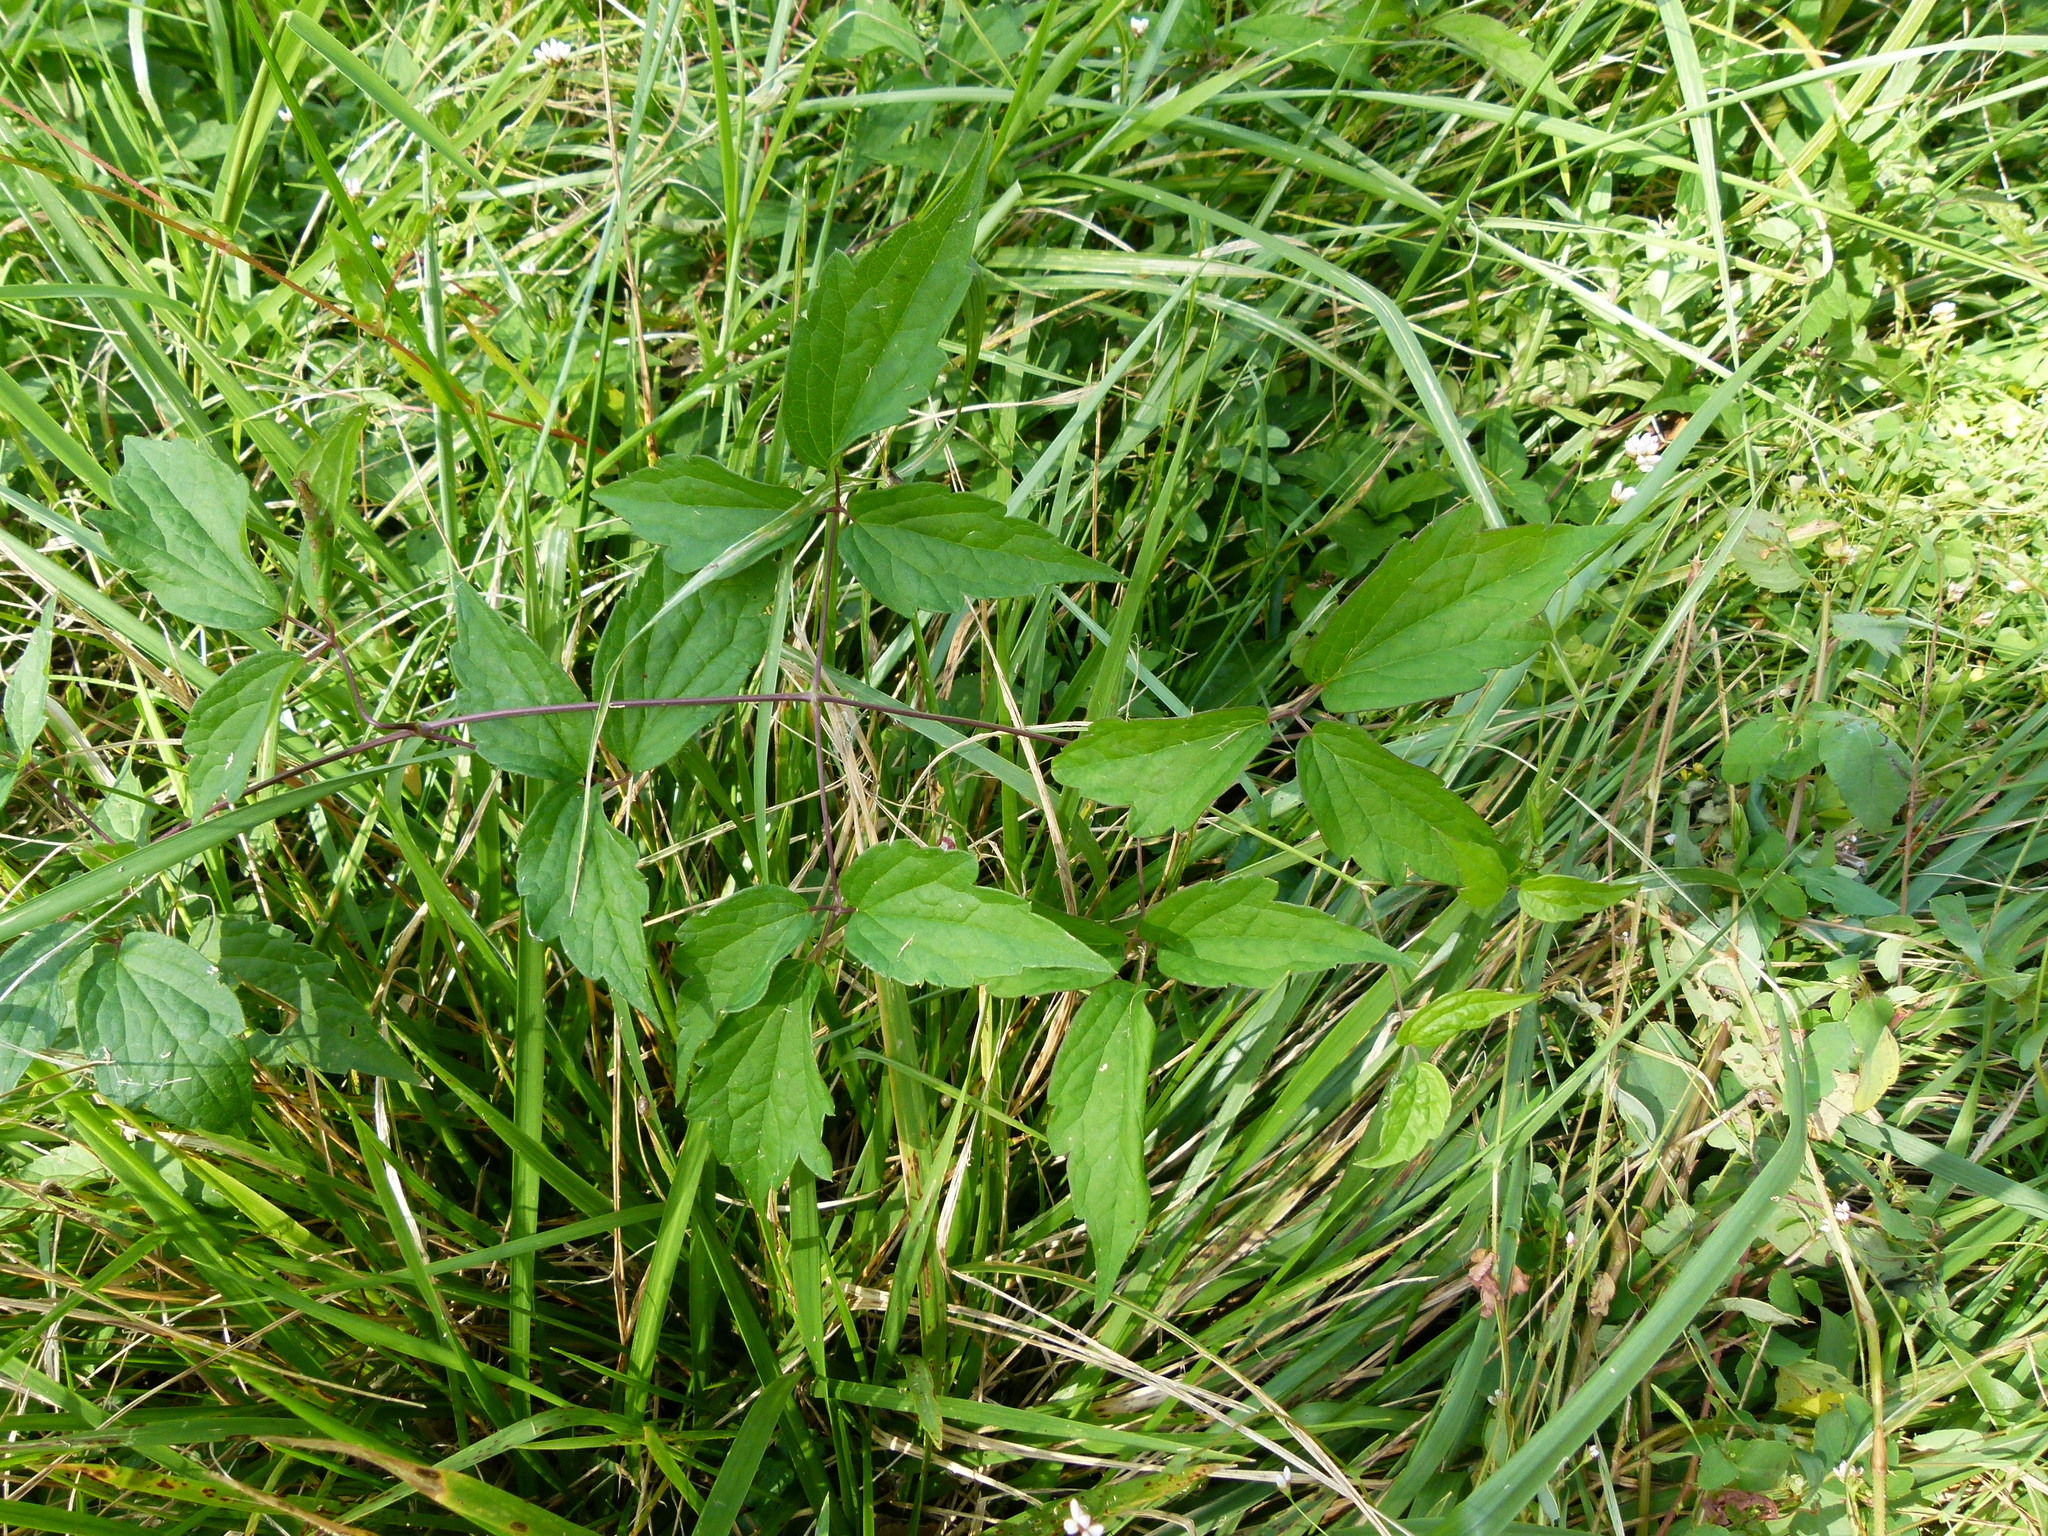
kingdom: Plantae
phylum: Tracheophyta
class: Magnoliopsida
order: Ranunculales
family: Ranunculaceae
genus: Clematis
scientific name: Clematis virginiana
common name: Virgin's-bower
